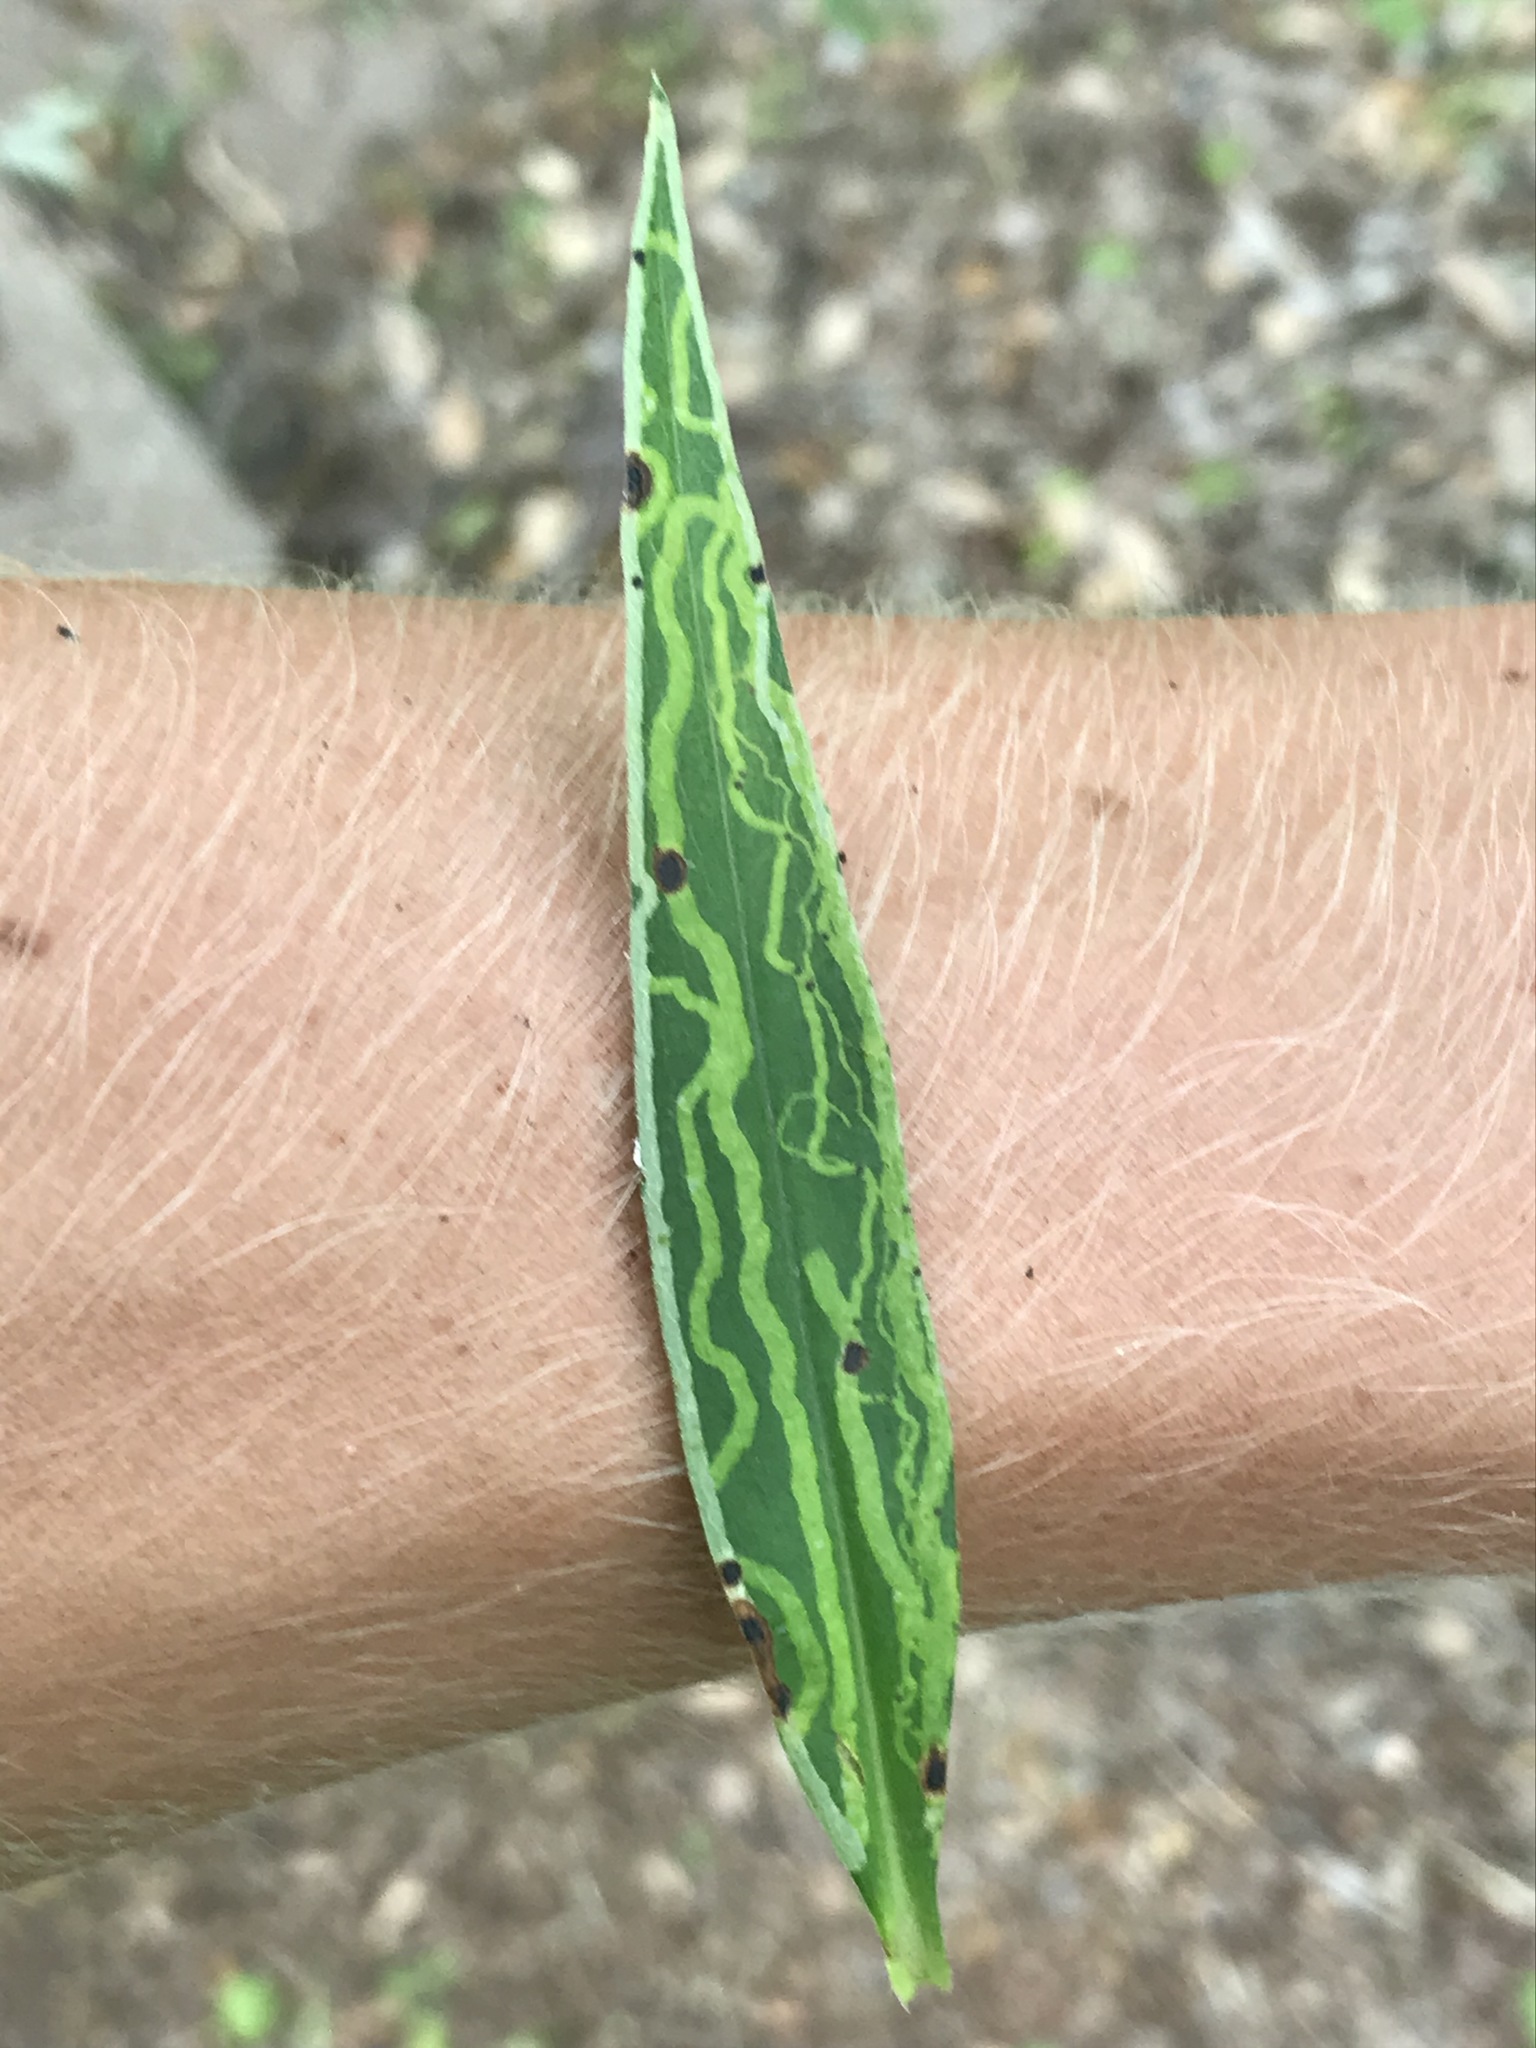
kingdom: Animalia
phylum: Arthropoda
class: Insecta
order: Diptera
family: Agromyzidae
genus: Ophiomyia
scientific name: Ophiomyia parda
